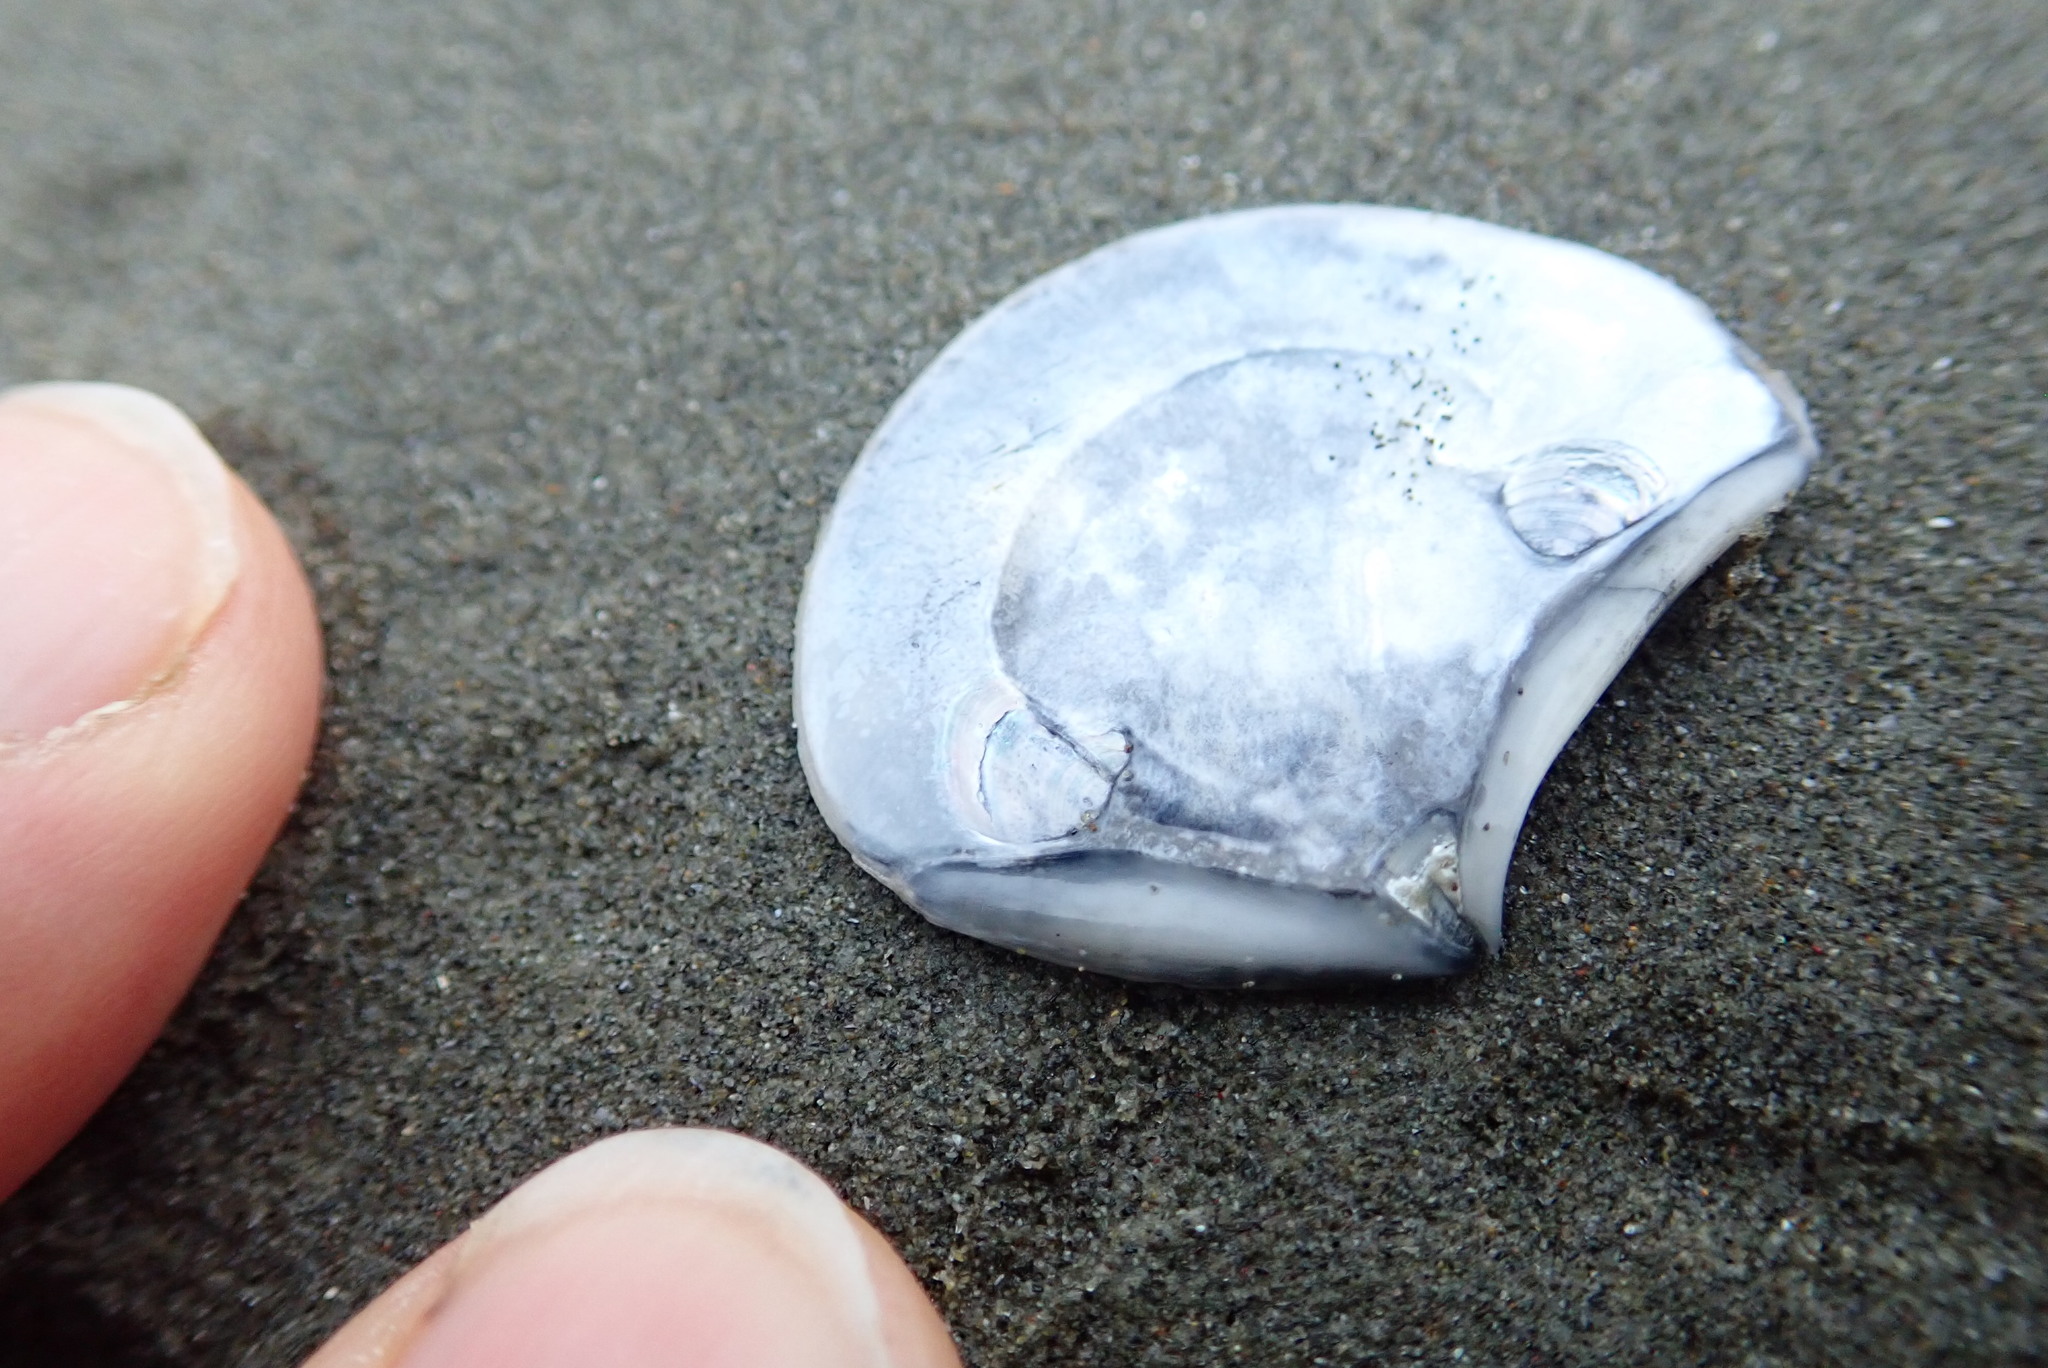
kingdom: Animalia
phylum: Mollusca
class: Bivalvia
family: Myochamidae
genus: Myadora
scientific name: Myadora striata
